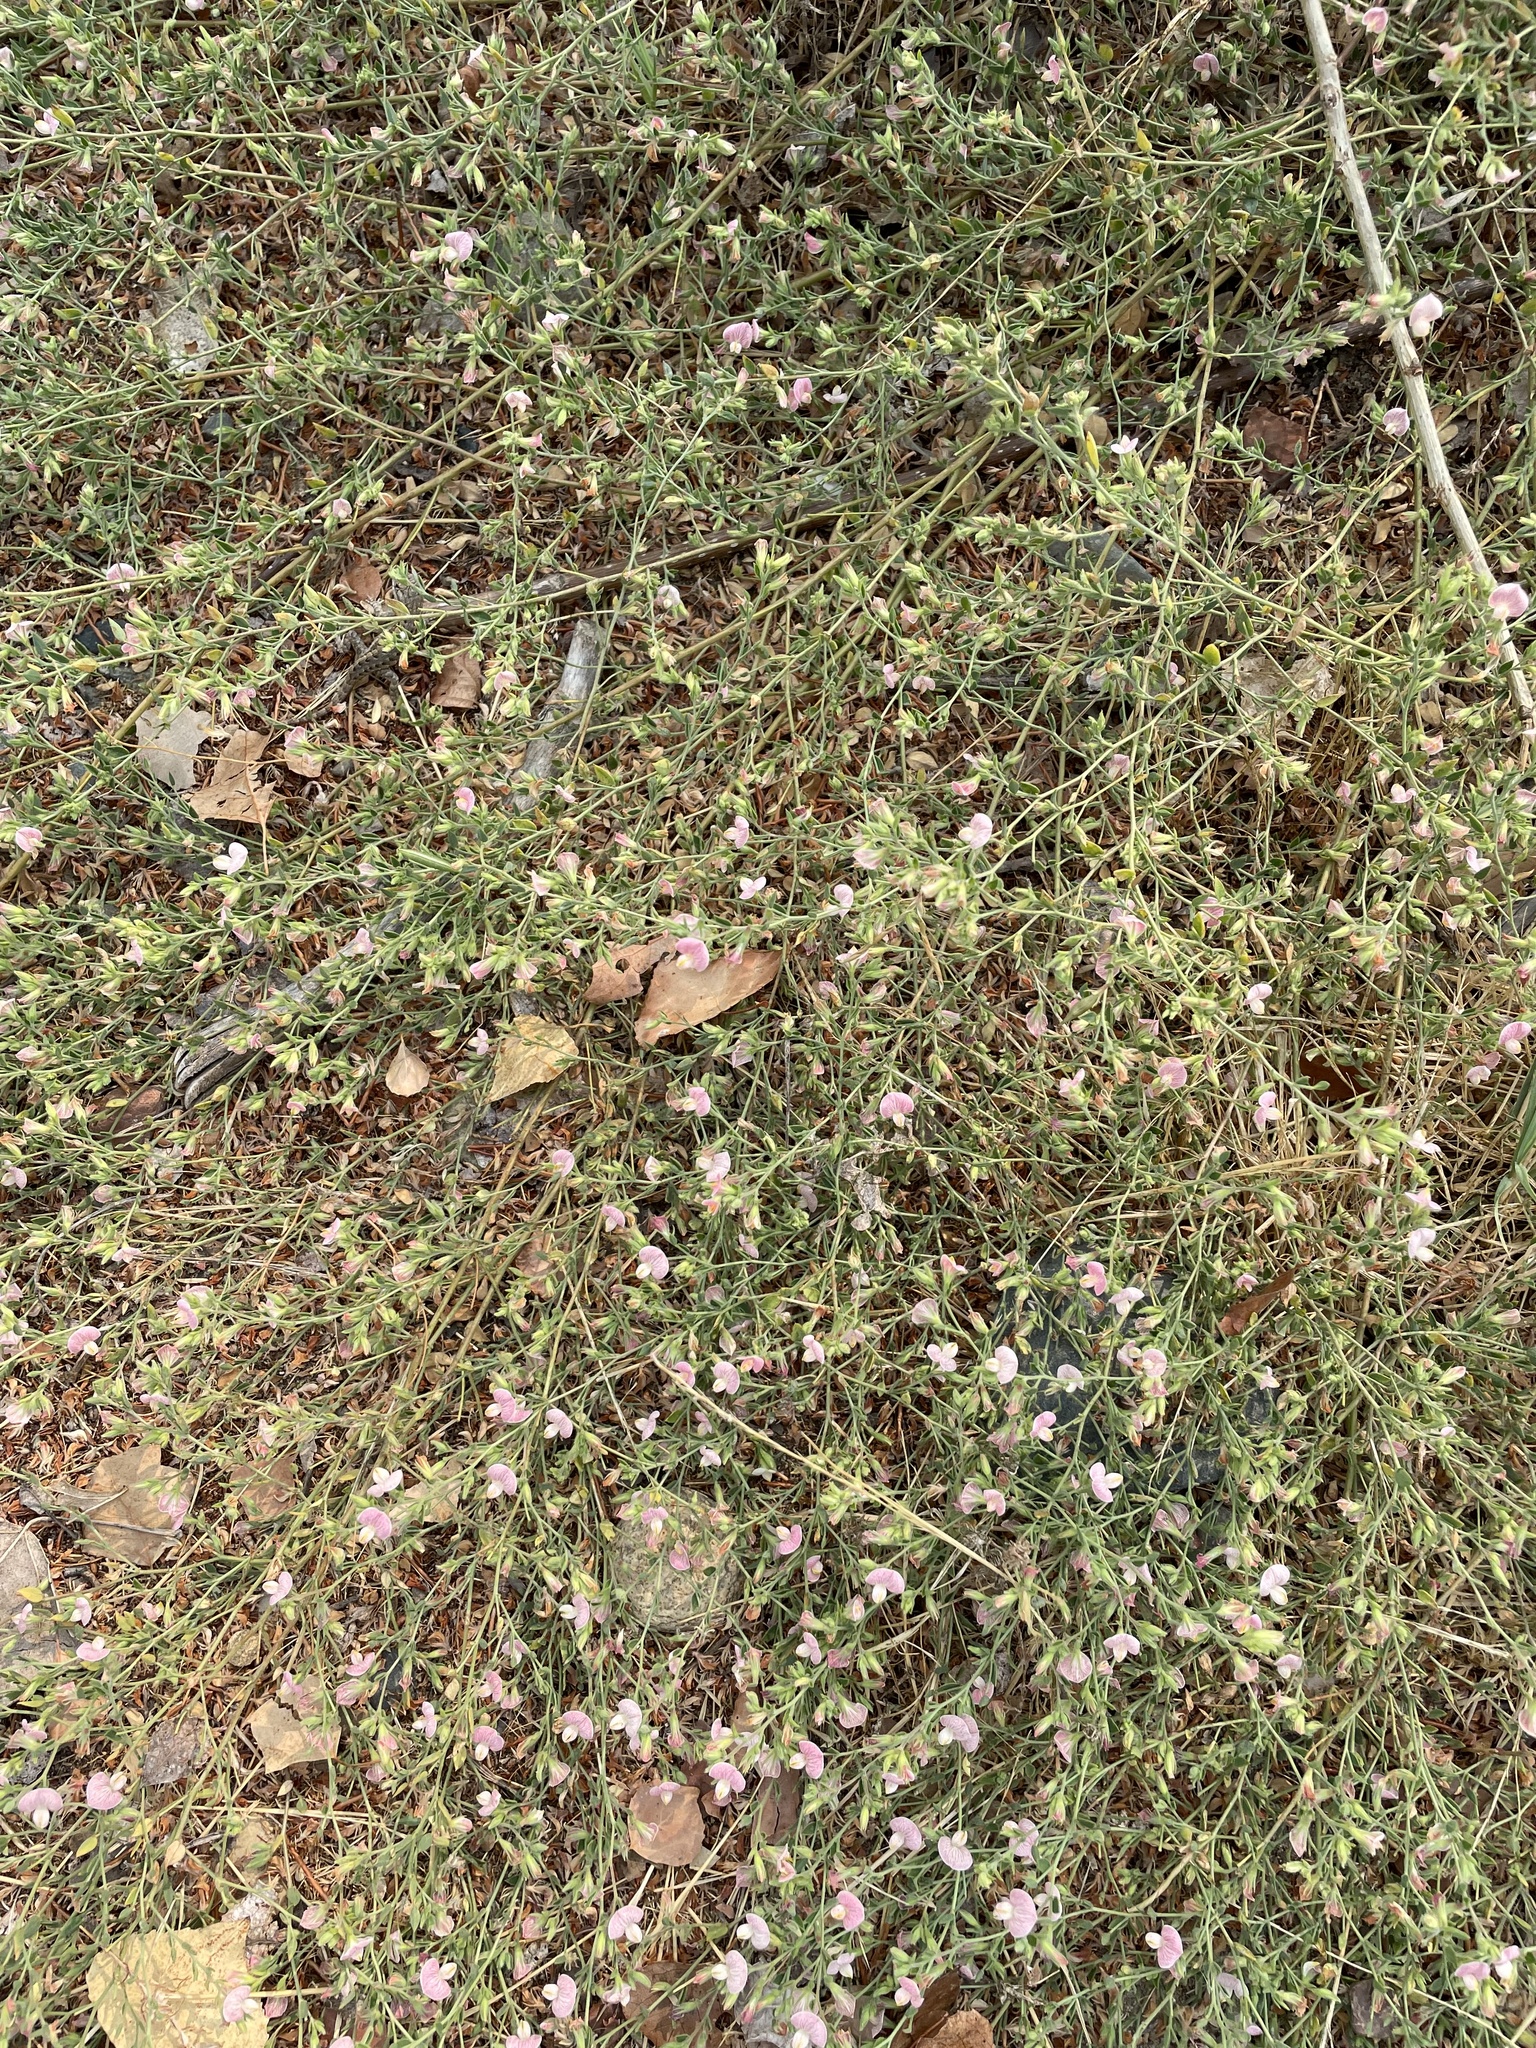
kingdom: Plantae
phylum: Tracheophyta
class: Magnoliopsida
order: Fabales
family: Fabaceae
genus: Acmispon
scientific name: Acmispon americanus
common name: American bird's-foot trefoil
